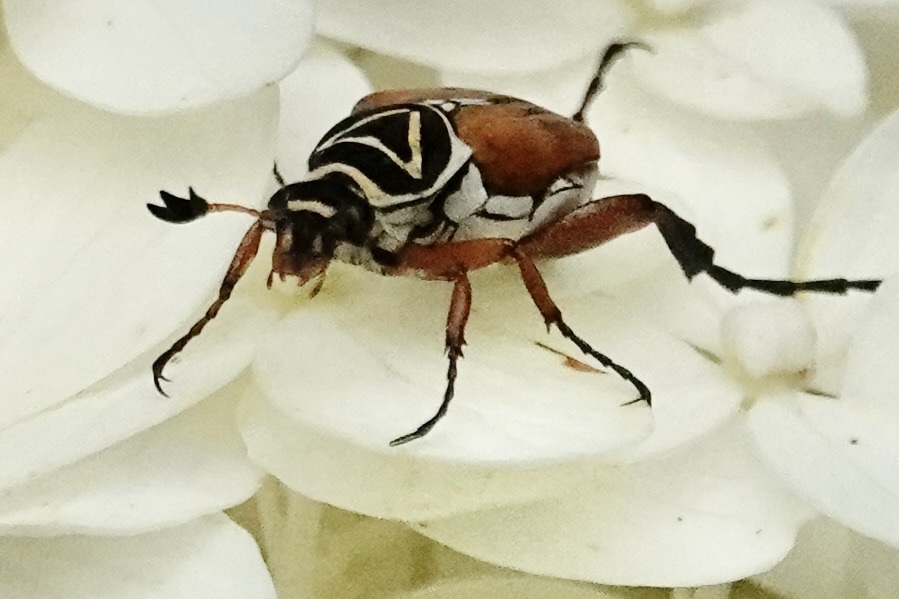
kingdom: Animalia
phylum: Arthropoda
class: Insecta
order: Coleoptera
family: Scarabaeidae
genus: Trigonopeltastes
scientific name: Trigonopeltastes delta
